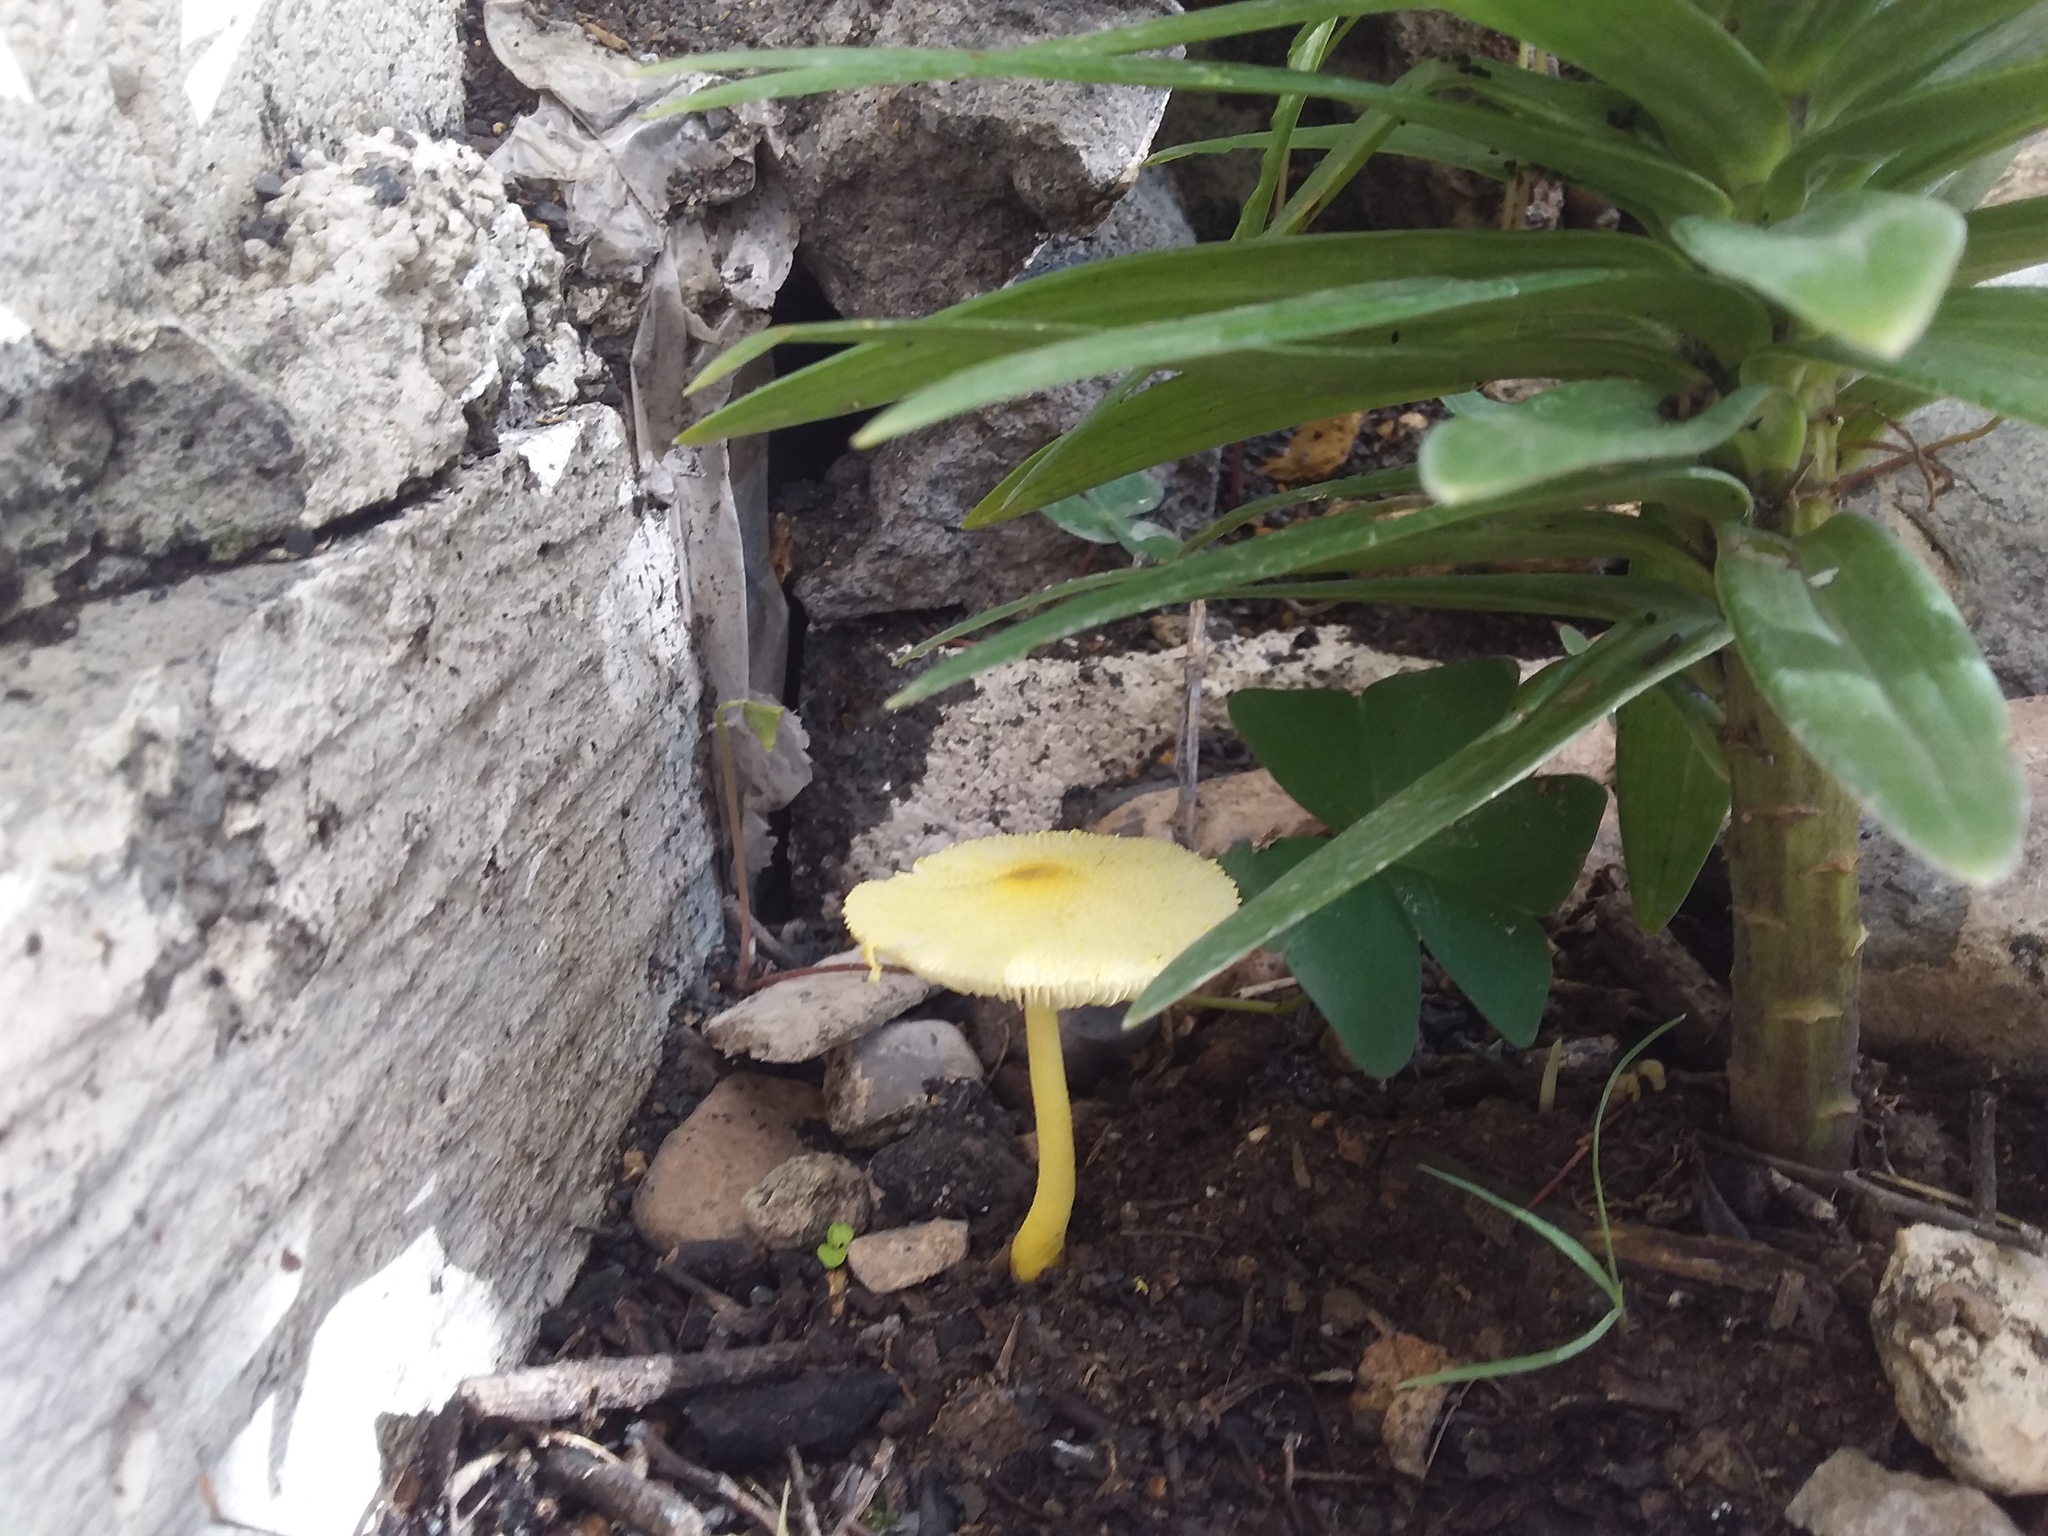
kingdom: Fungi
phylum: Basidiomycota
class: Agaricomycetes
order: Agaricales
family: Agaricaceae
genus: Leucocoprinus
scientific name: Leucocoprinus birnbaumii
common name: Plantpot dapperling
